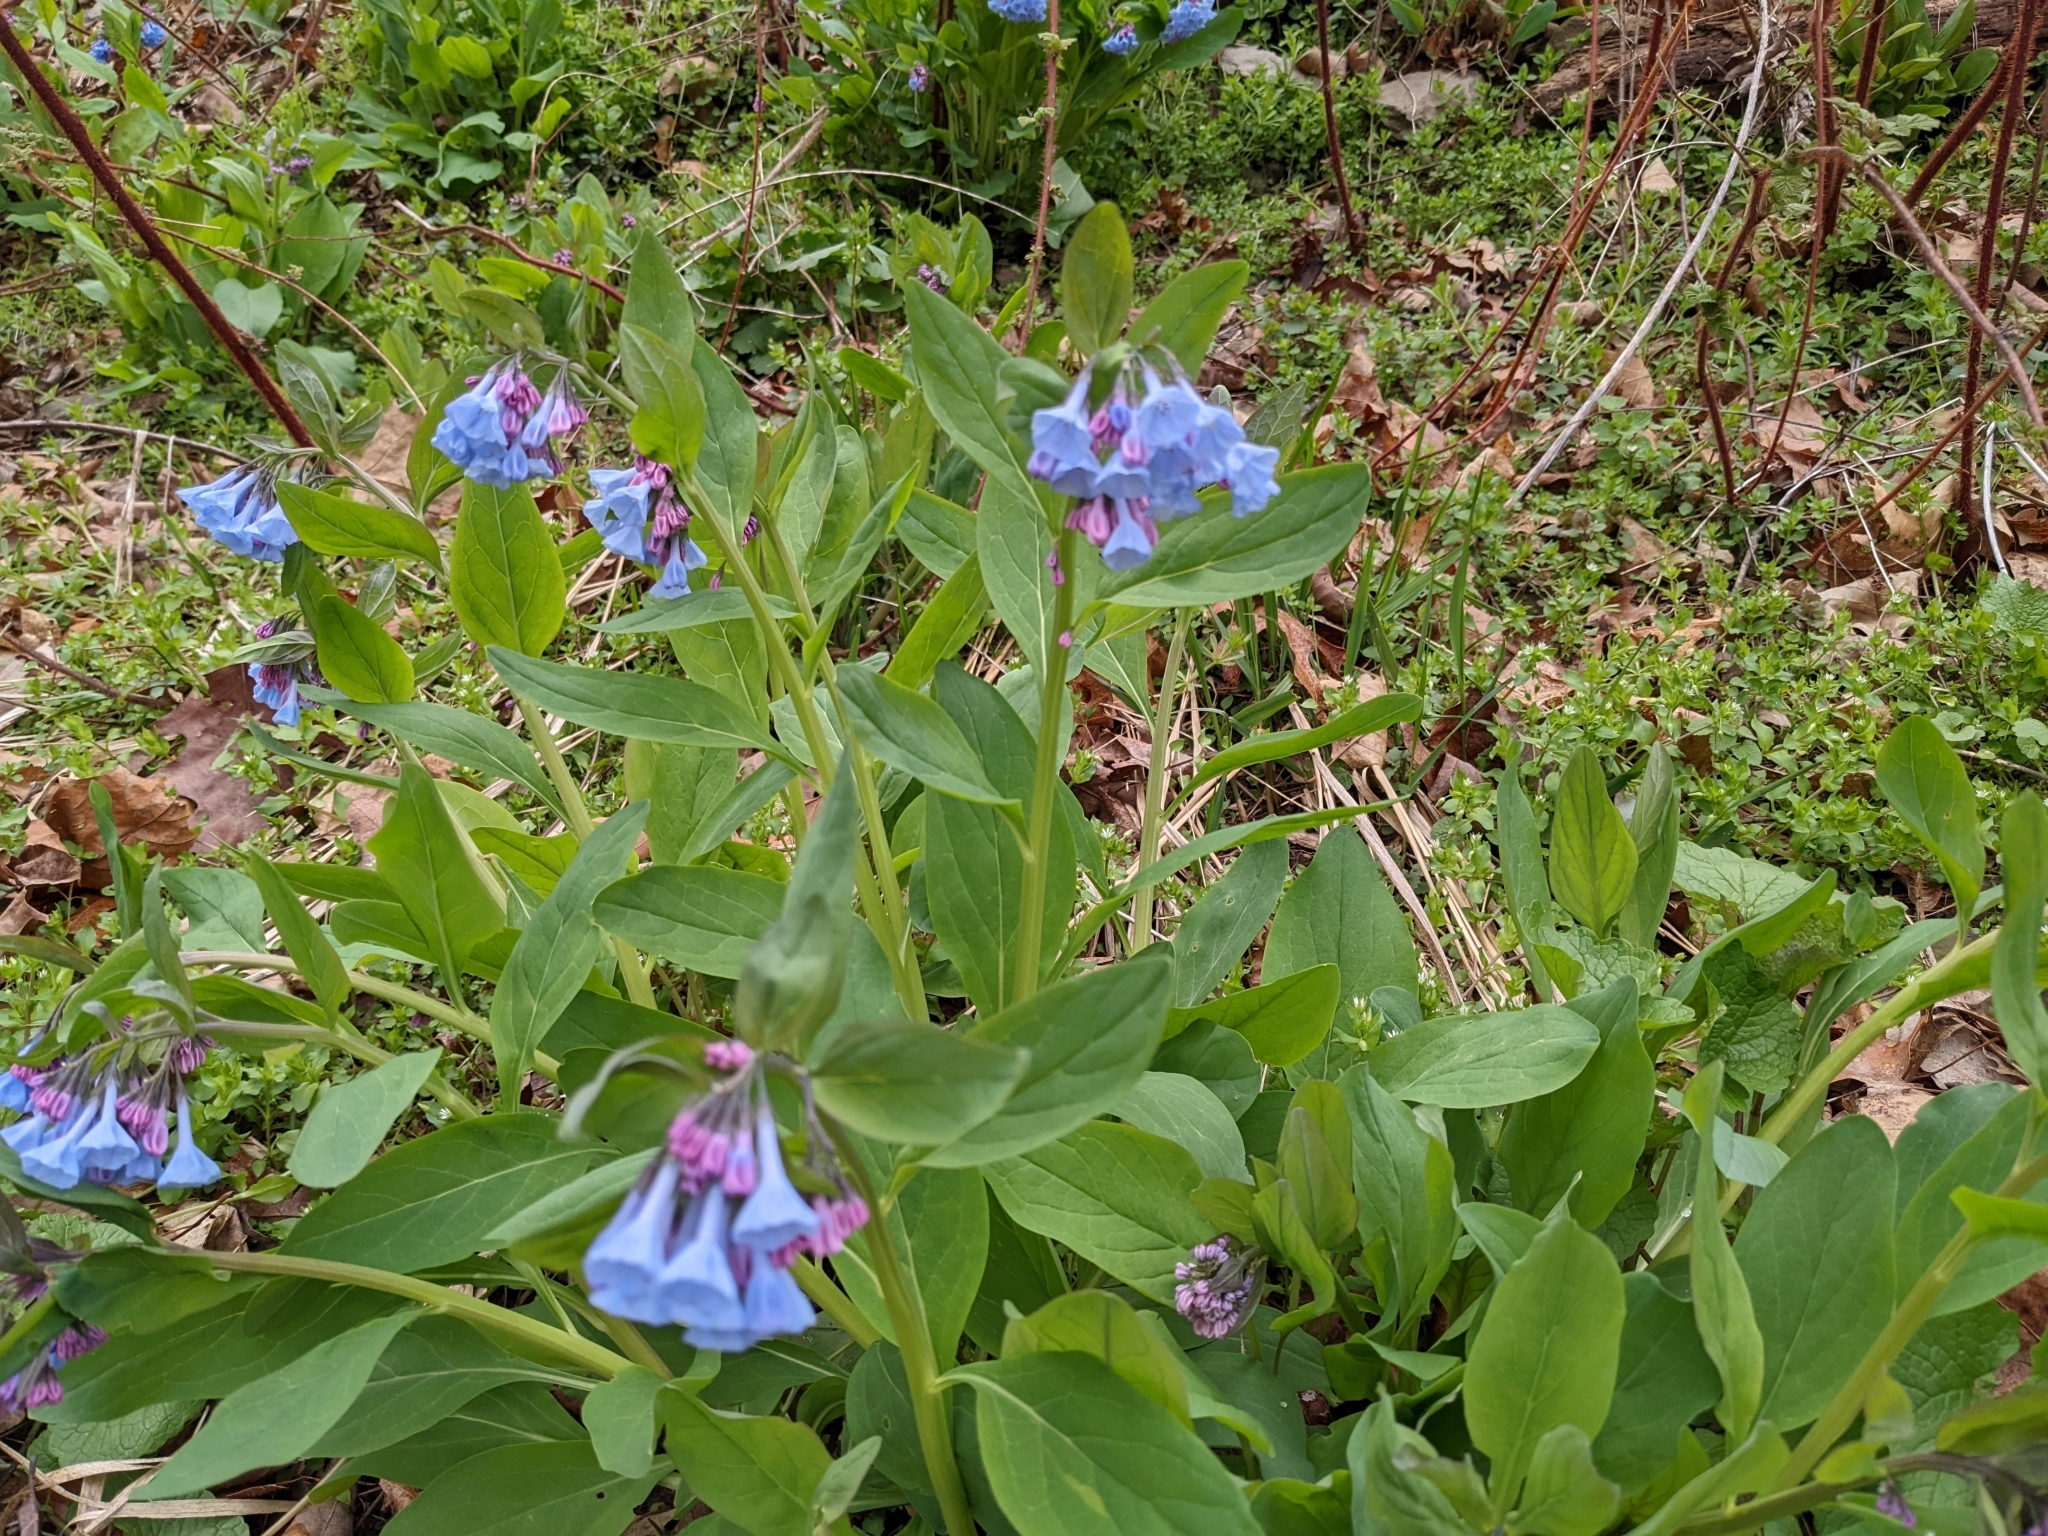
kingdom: Plantae
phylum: Tracheophyta
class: Magnoliopsida
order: Boraginales
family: Boraginaceae
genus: Mertensia
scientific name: Mertensia virginica
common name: Virginia bluebells
